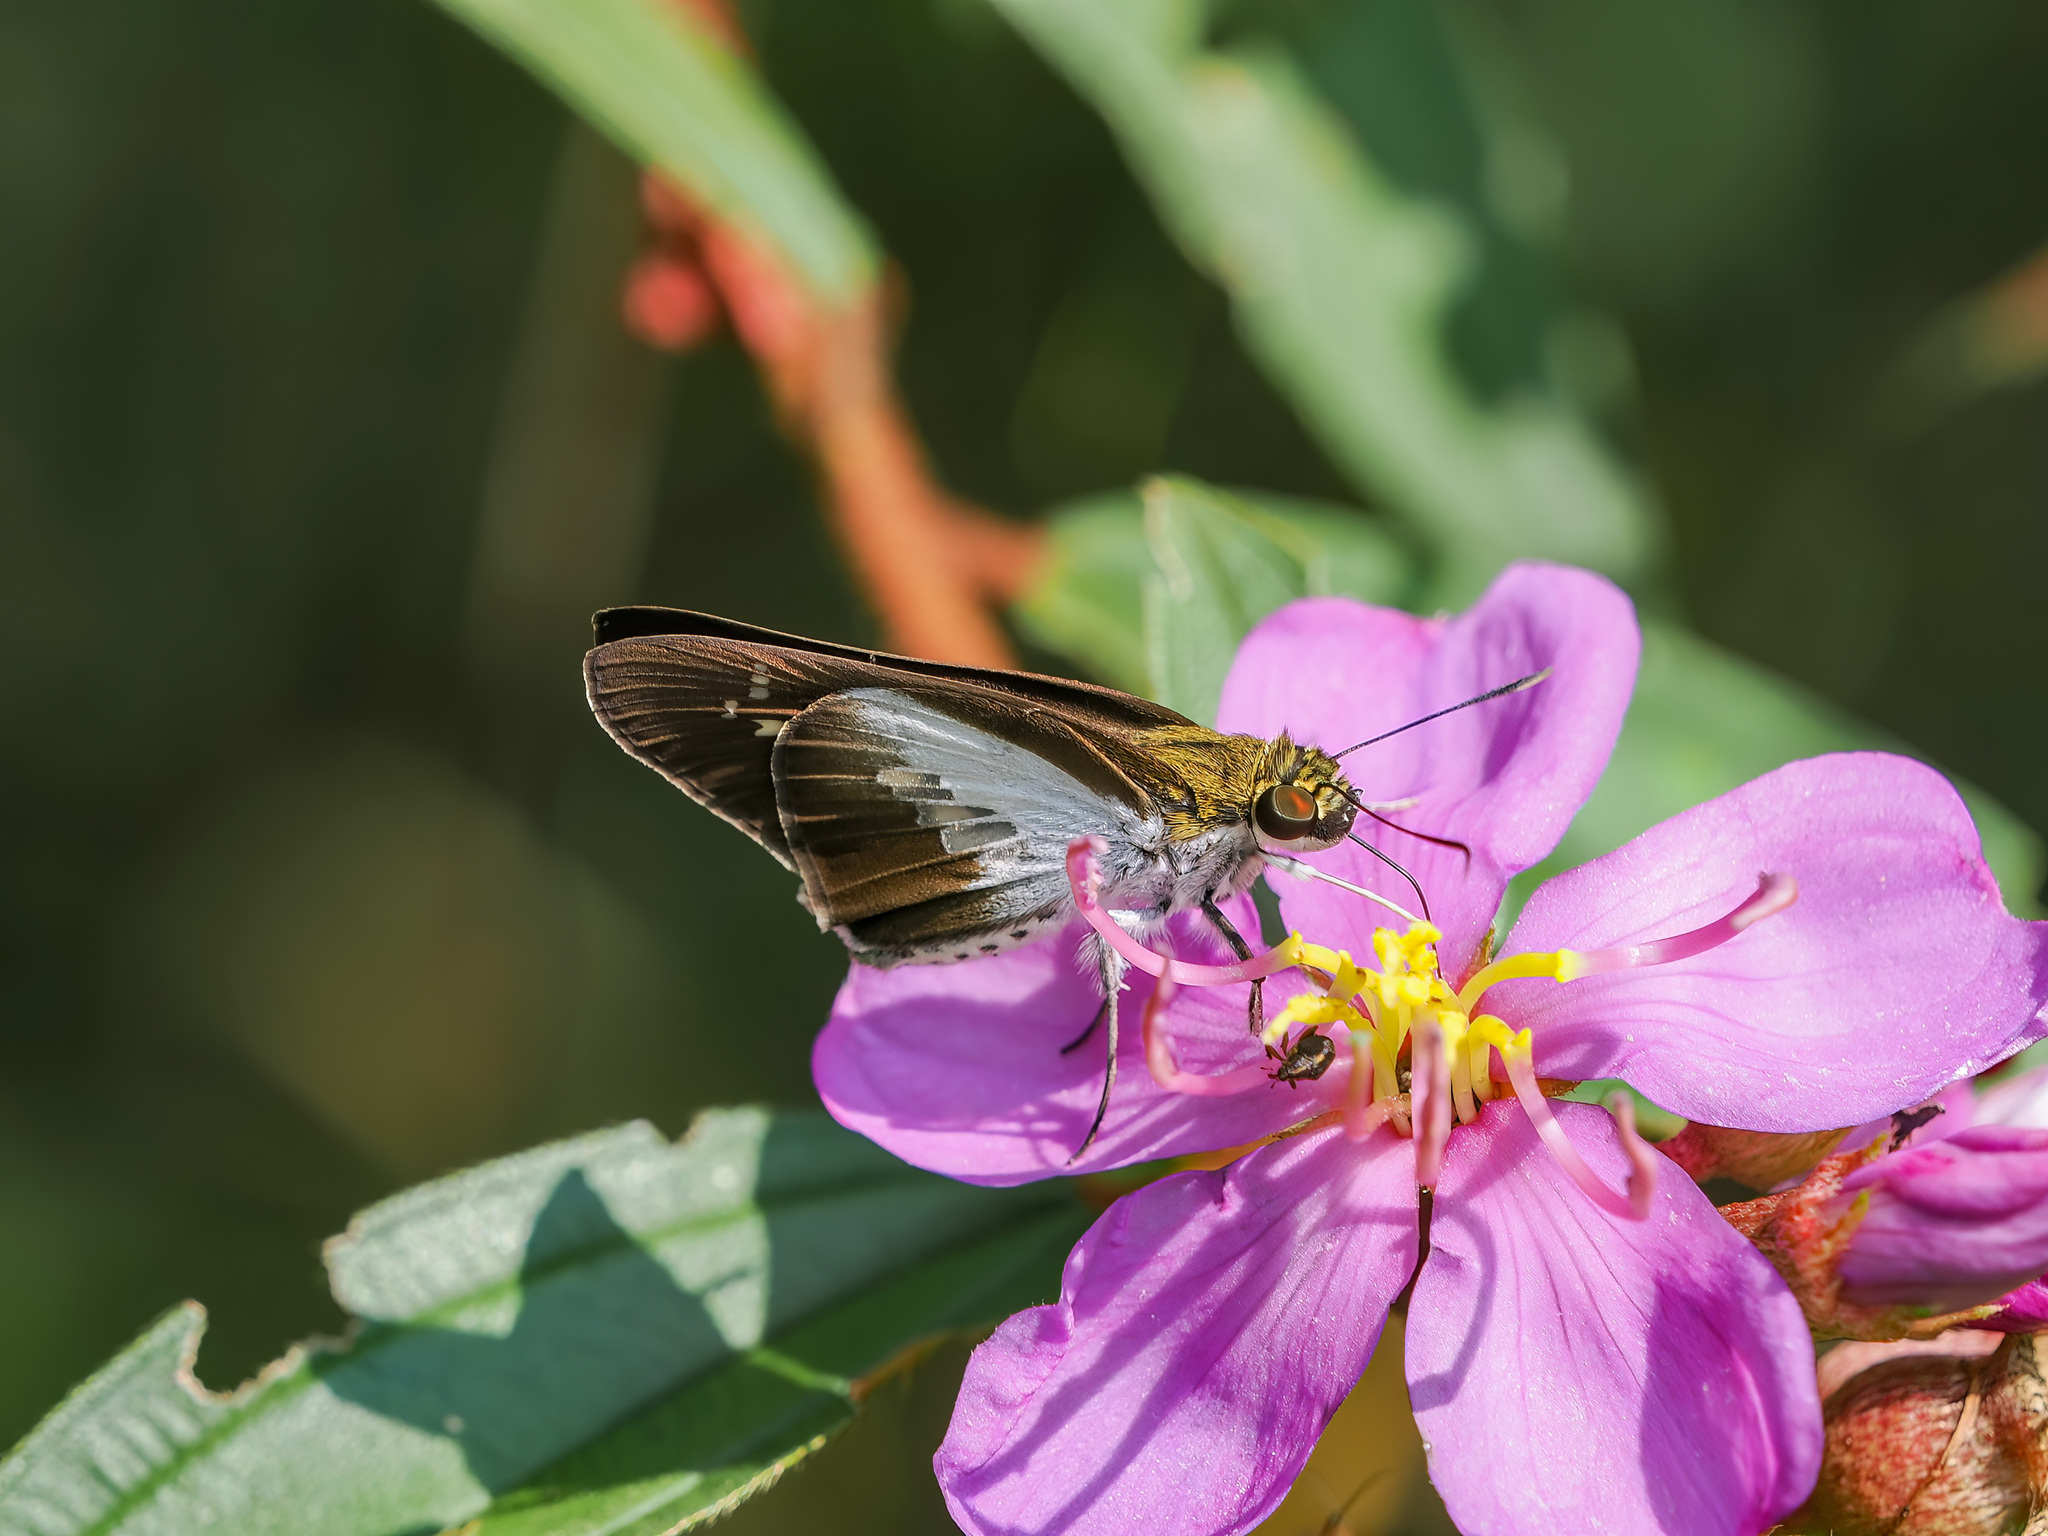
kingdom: Animalia
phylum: Arthropoda
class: Insecta
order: Lepidoptera
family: Hesperiidae
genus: Eetion
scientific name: Eetion elia
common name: White spotted palmer
